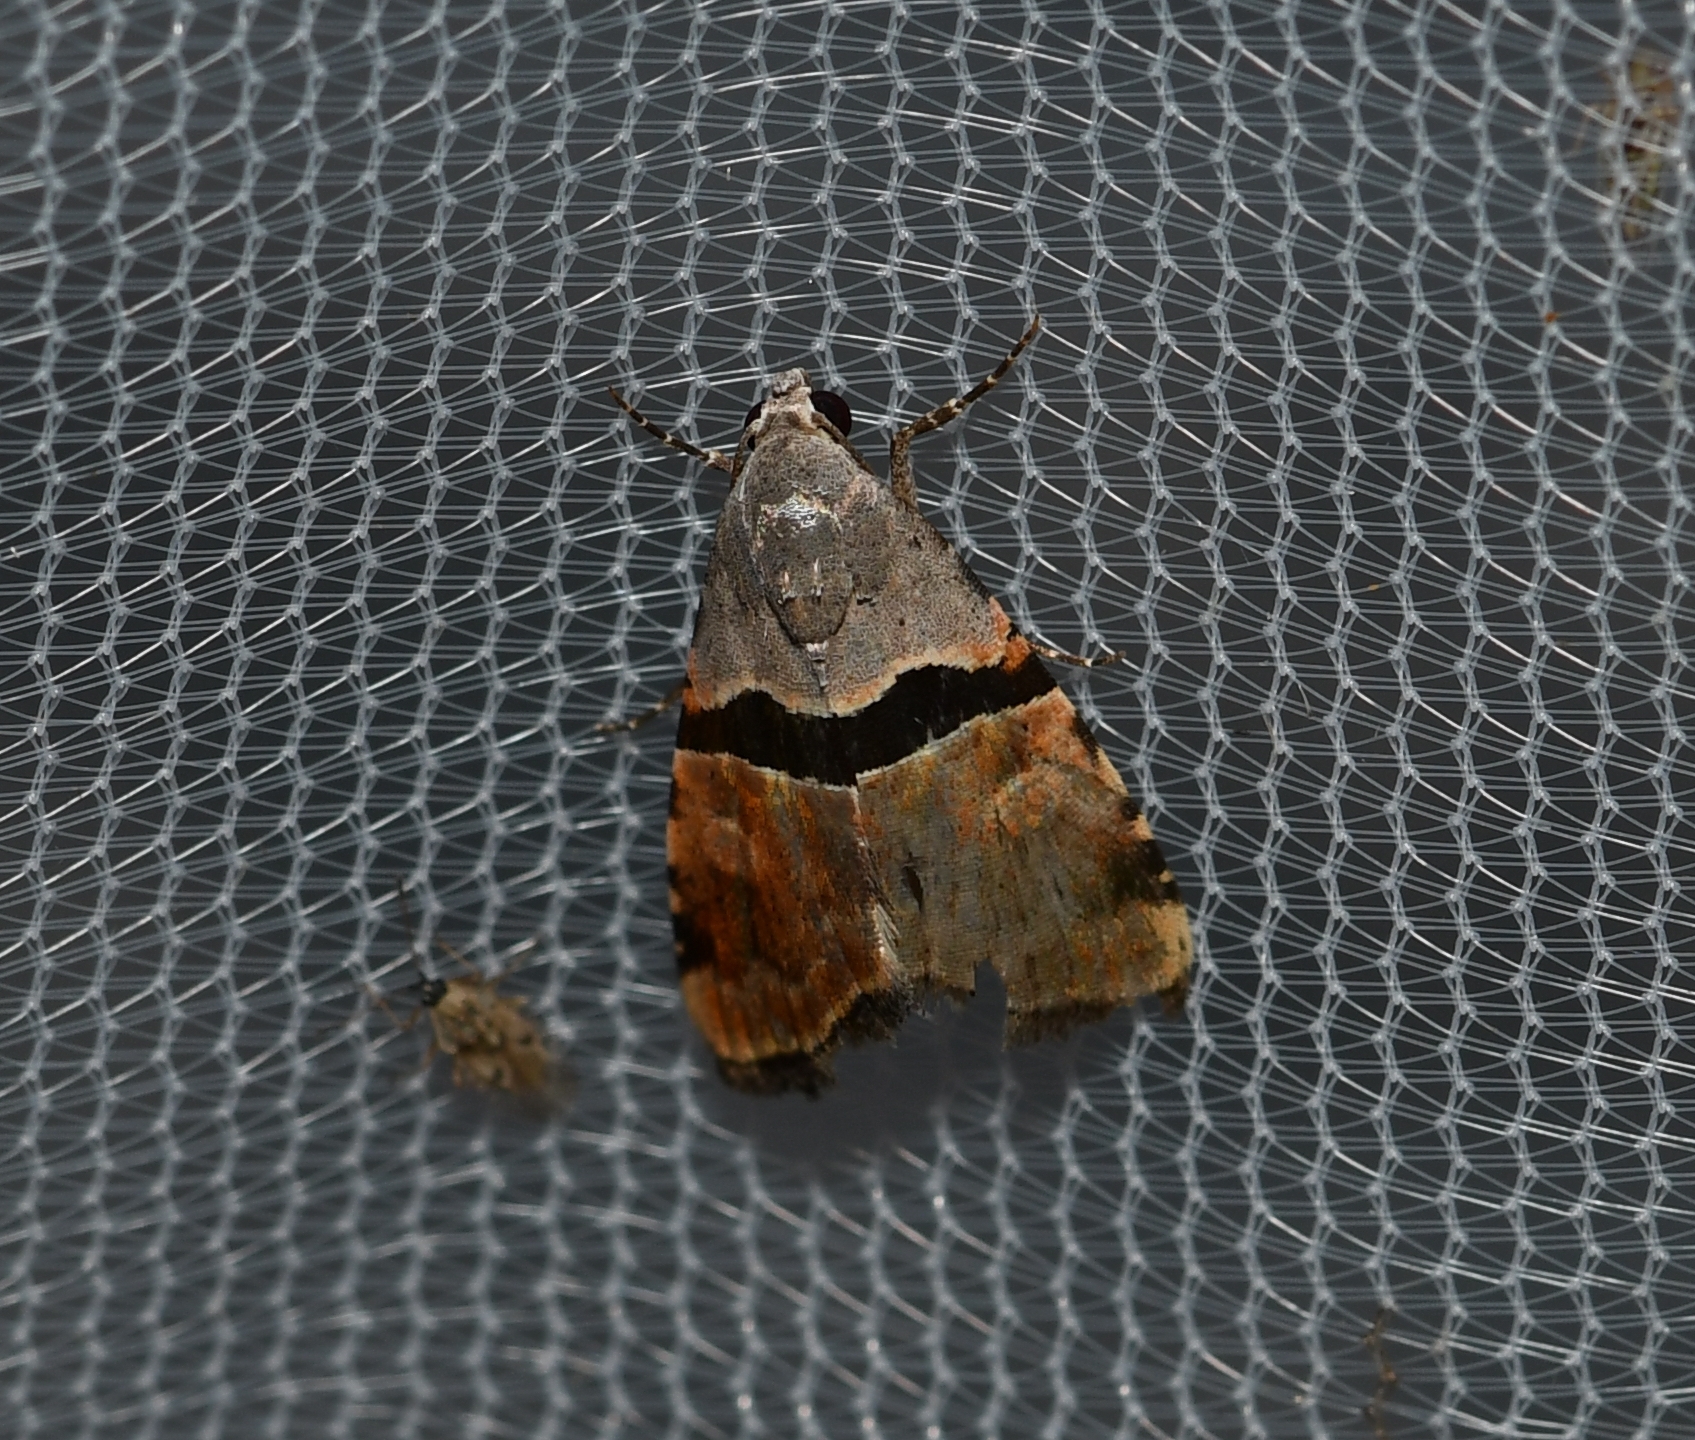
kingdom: Animalia
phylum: Arthropoda
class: Insecta
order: Lepidoptera
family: Noctuidae
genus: Cobubatha
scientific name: Cobubatha lixiva
